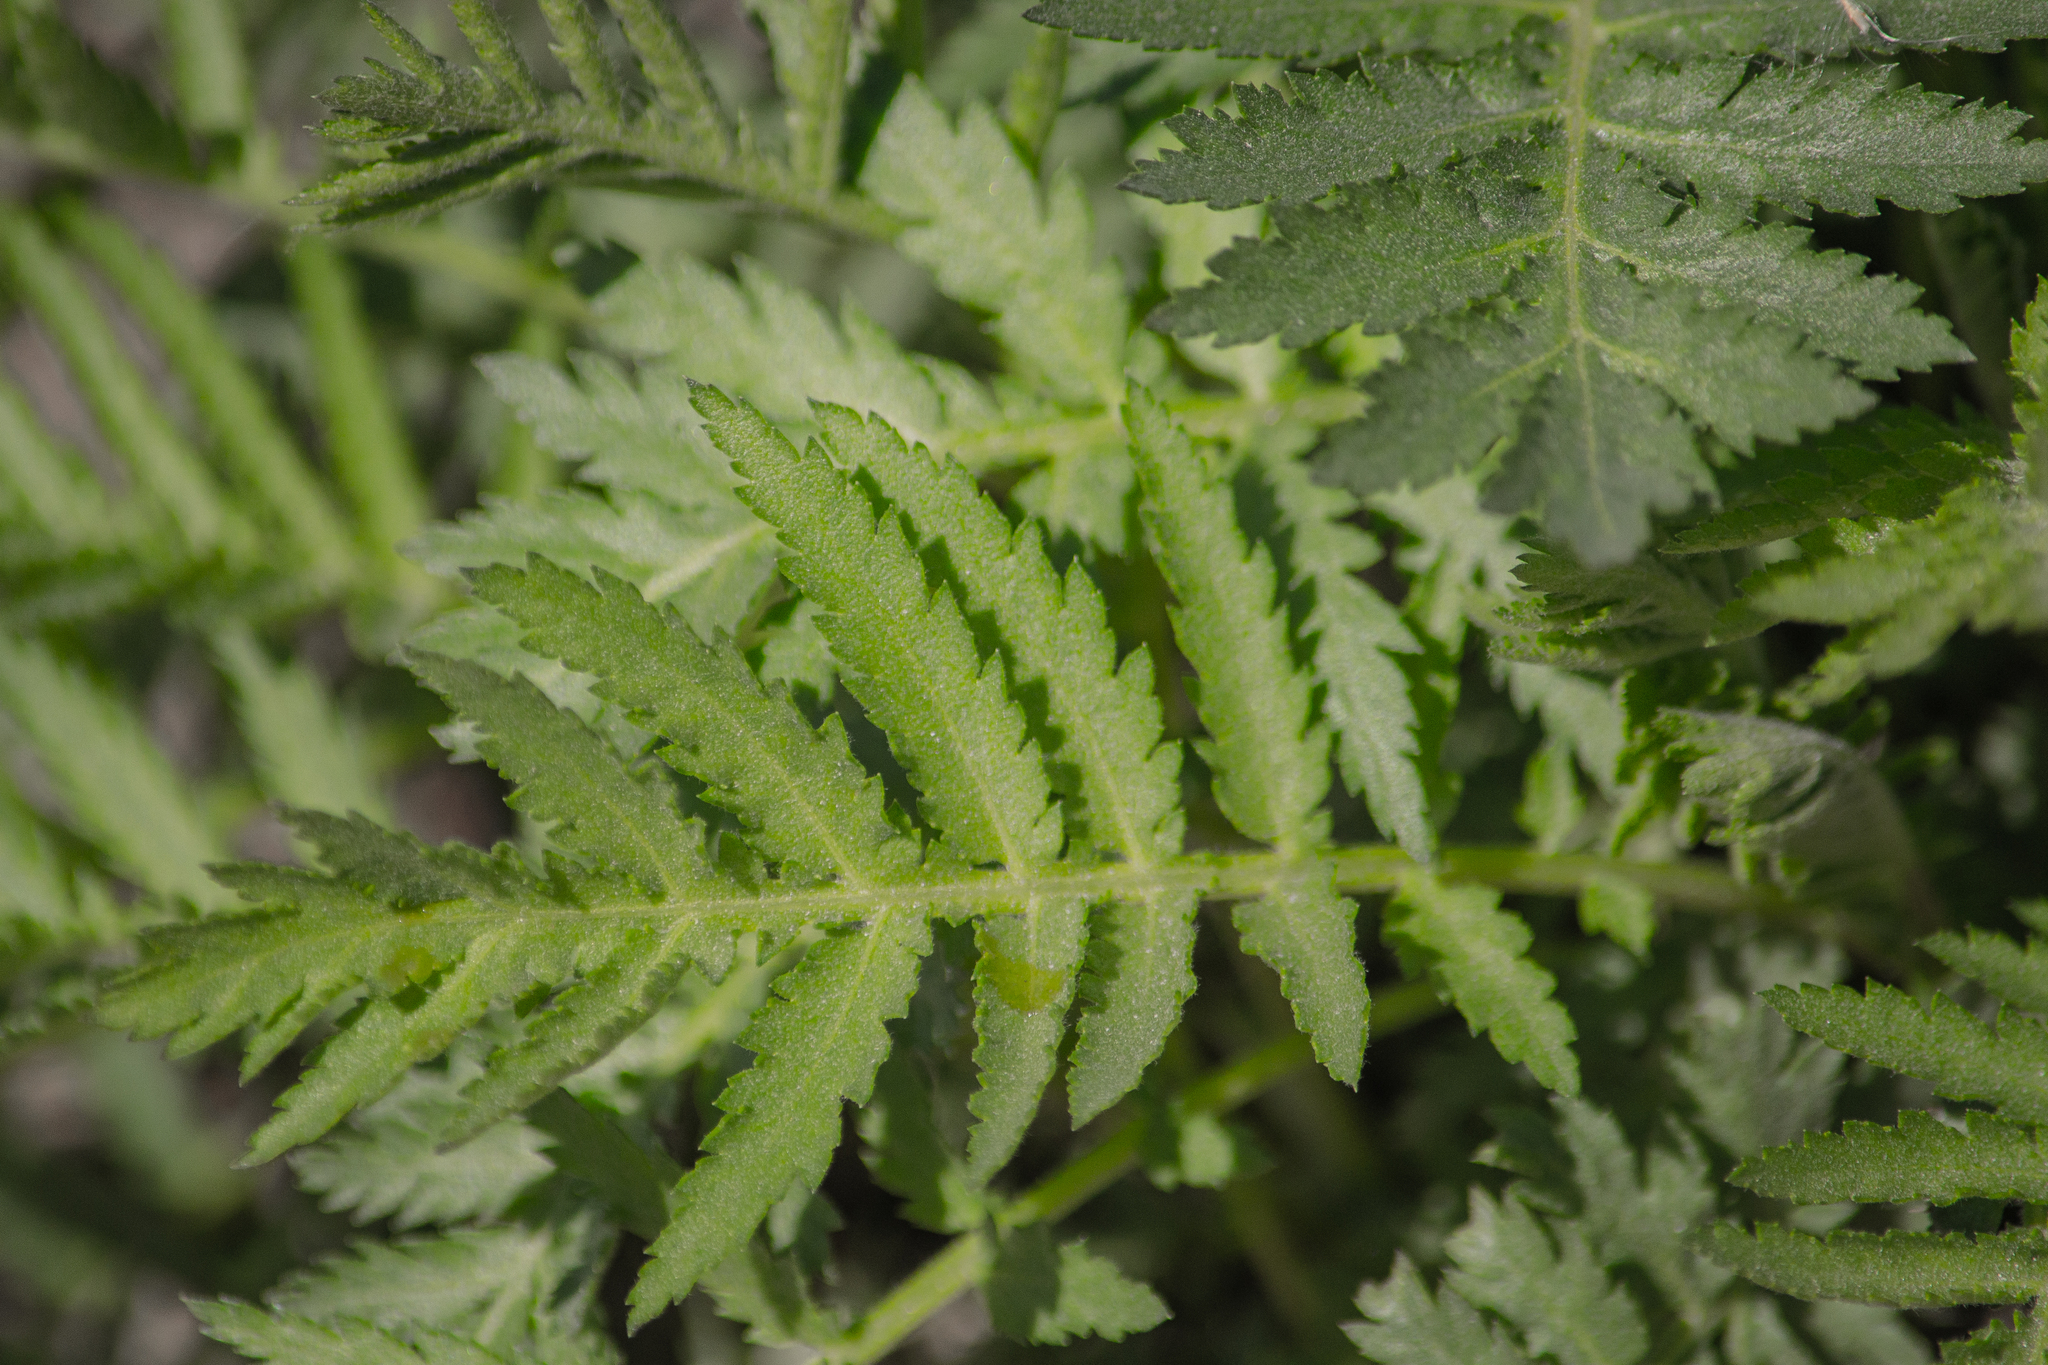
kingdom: Plantae
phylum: Tracheophyta
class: Magnoliopsida
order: Asterales
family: Asteraceae
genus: Tanacetum
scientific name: Tanacetum vulgare
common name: Common tansy
